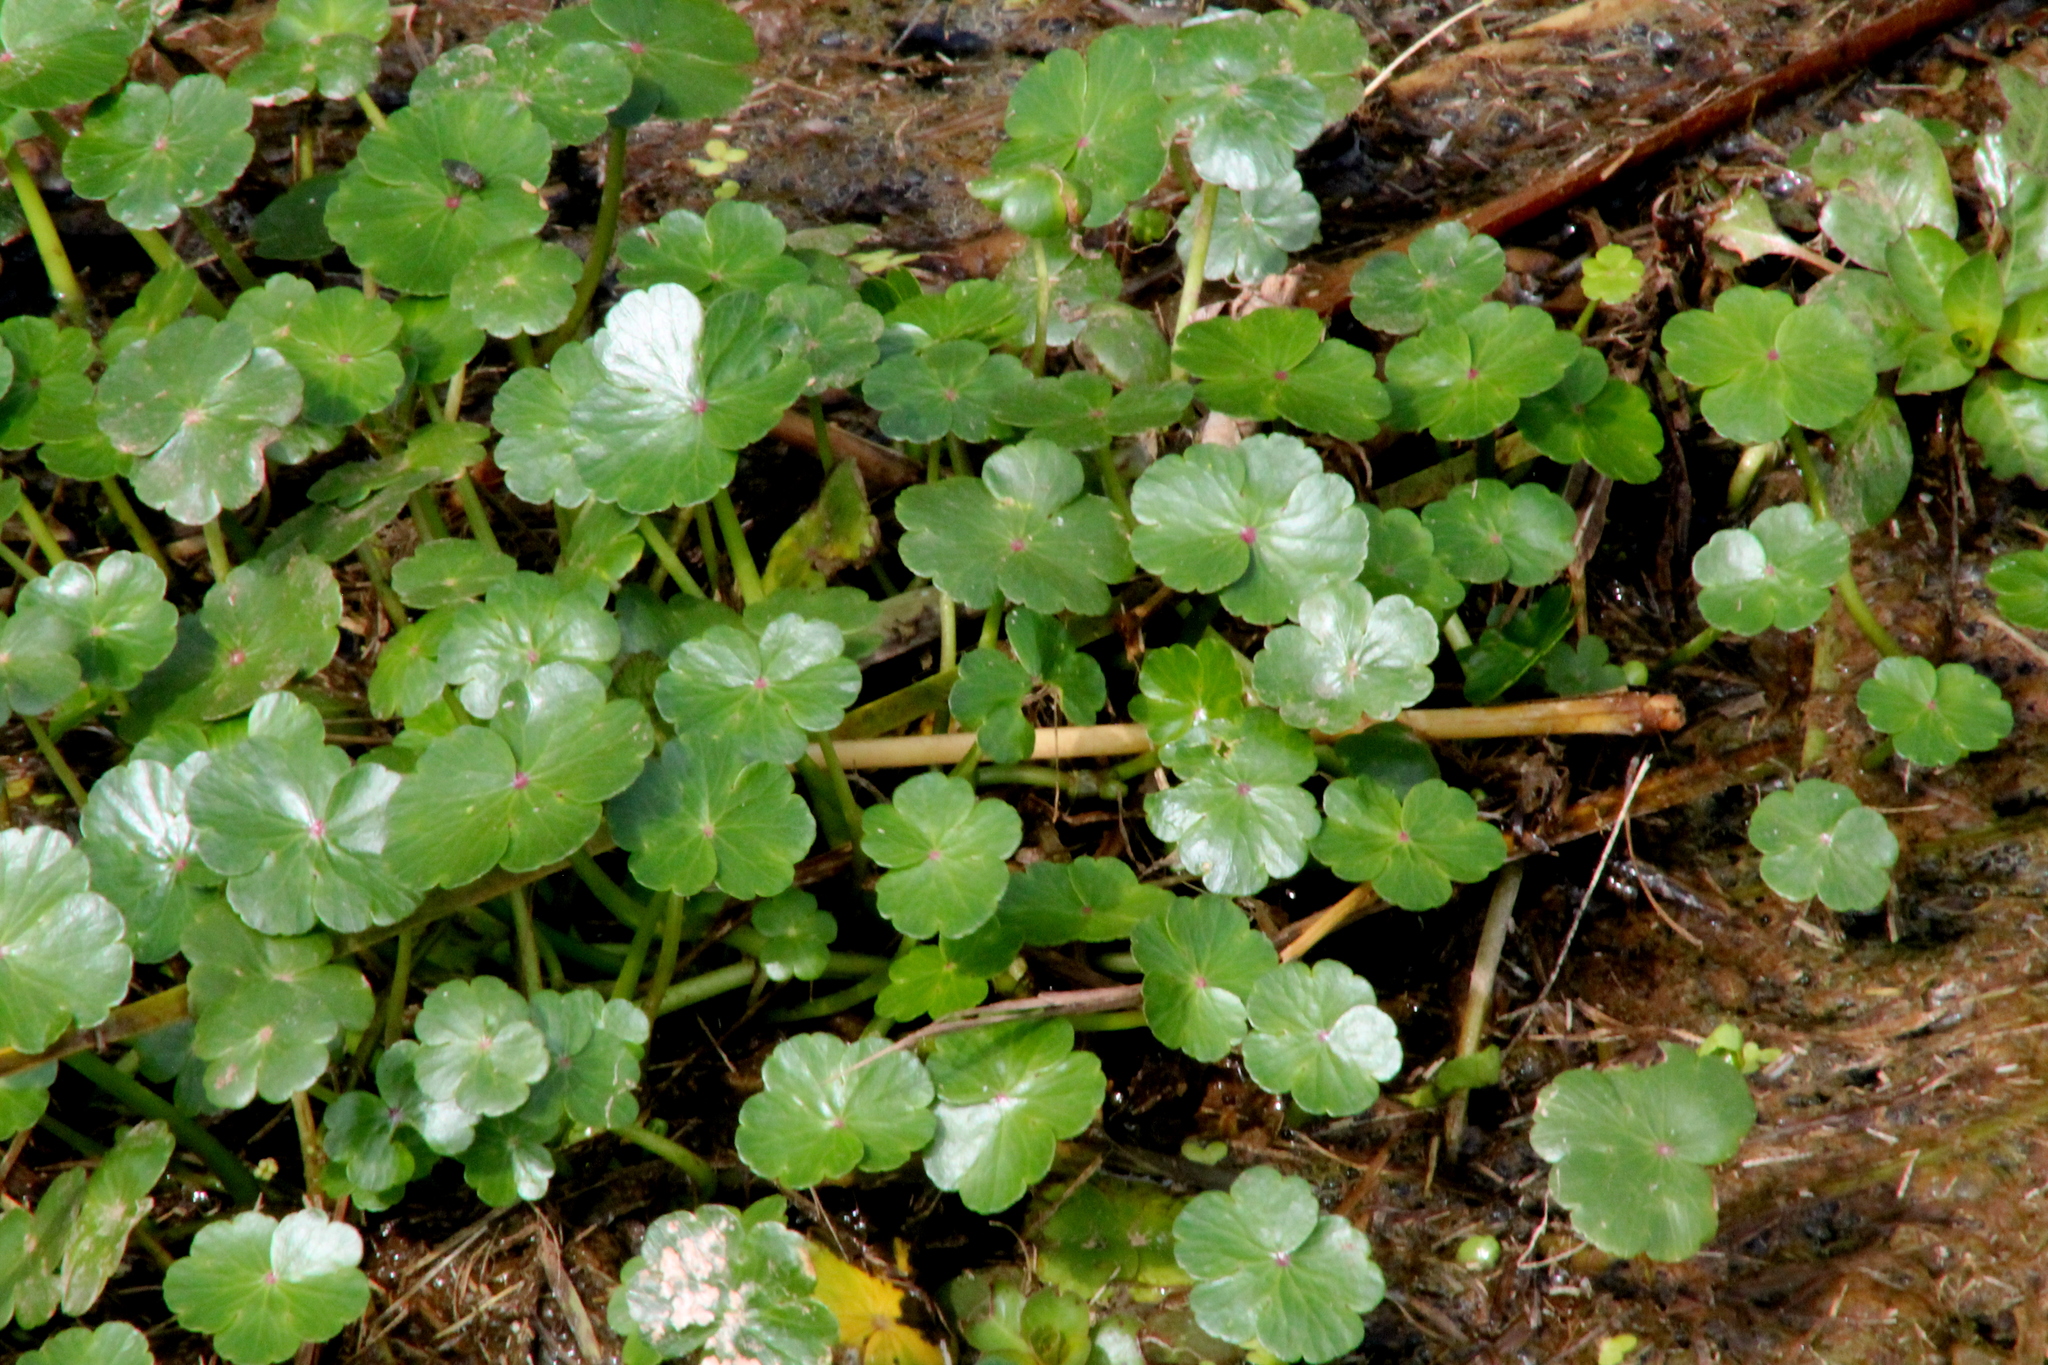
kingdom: Plantae
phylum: Tracheophyta
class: Magnoliopsida
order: Apiales
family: Araliaceae
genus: Hydrocotyle
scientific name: Hydrocotyle ranunculoides
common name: Floating pennywort
